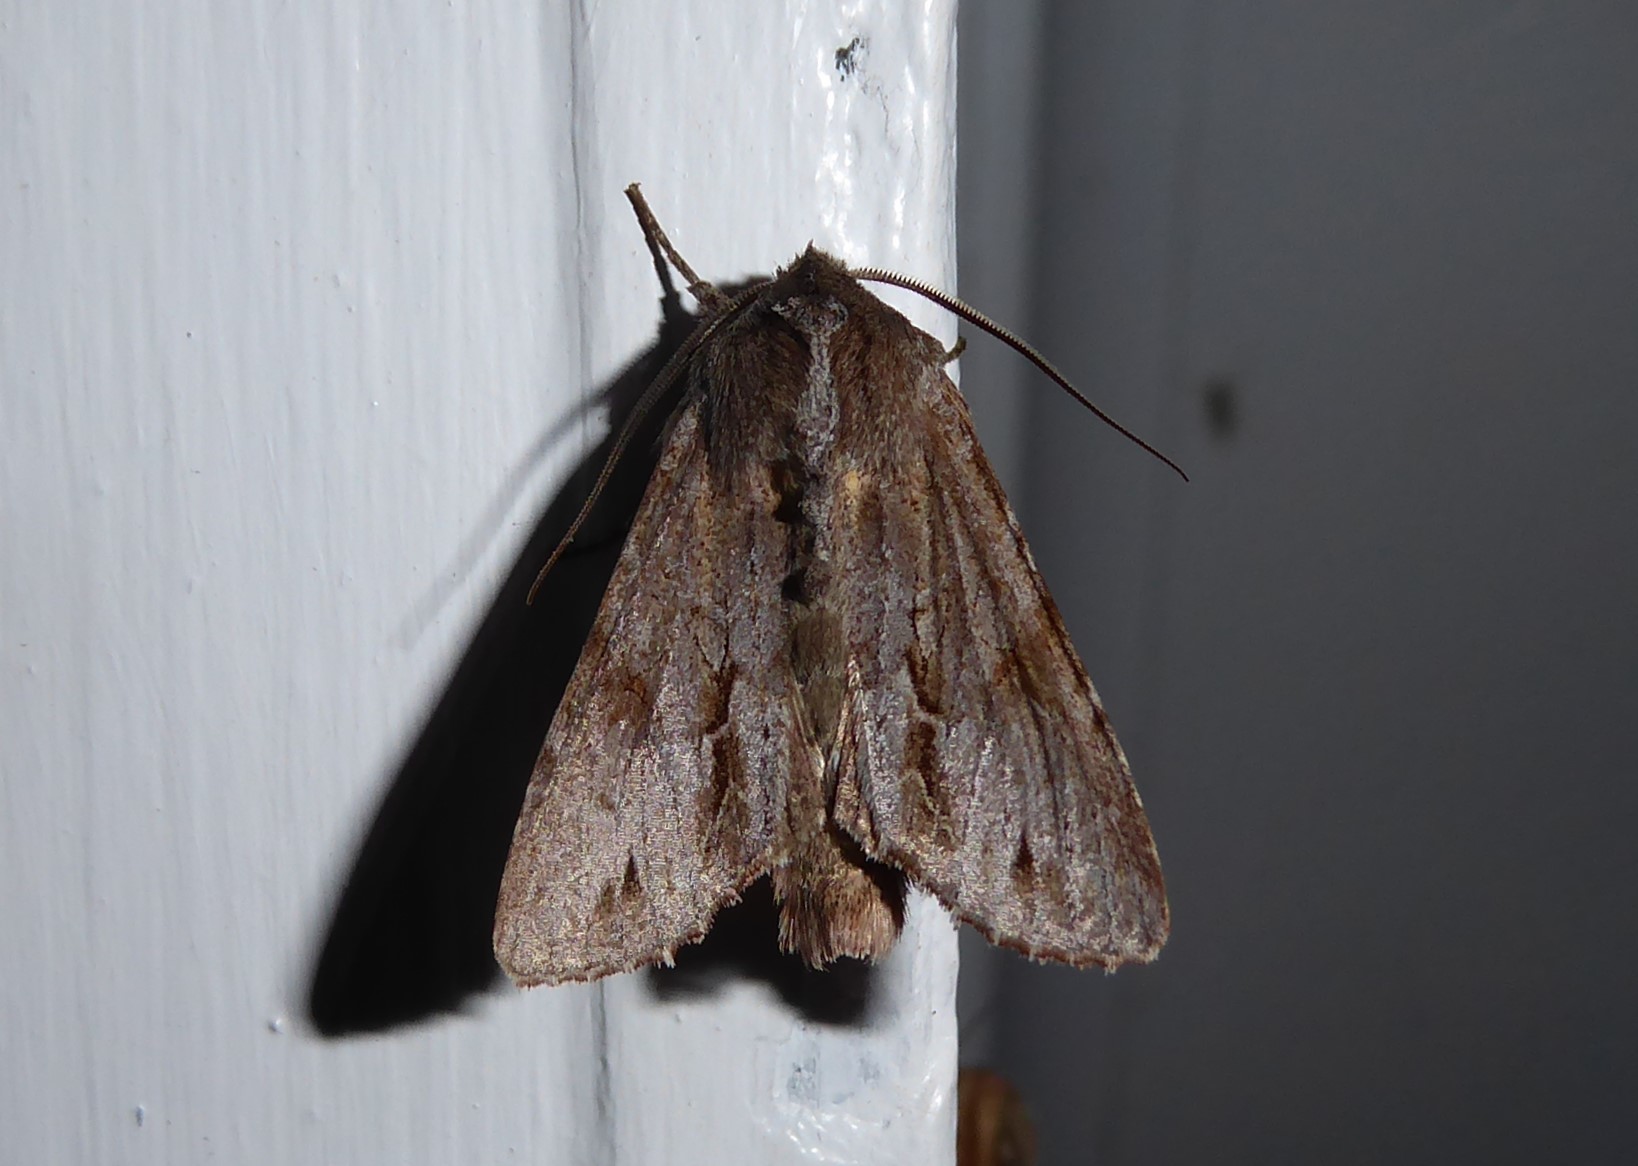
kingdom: Animalia
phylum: Arthropoda
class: Insecta
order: Lepidoptera
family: Noctuidae
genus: Ichneutica
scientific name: Ichneutica
